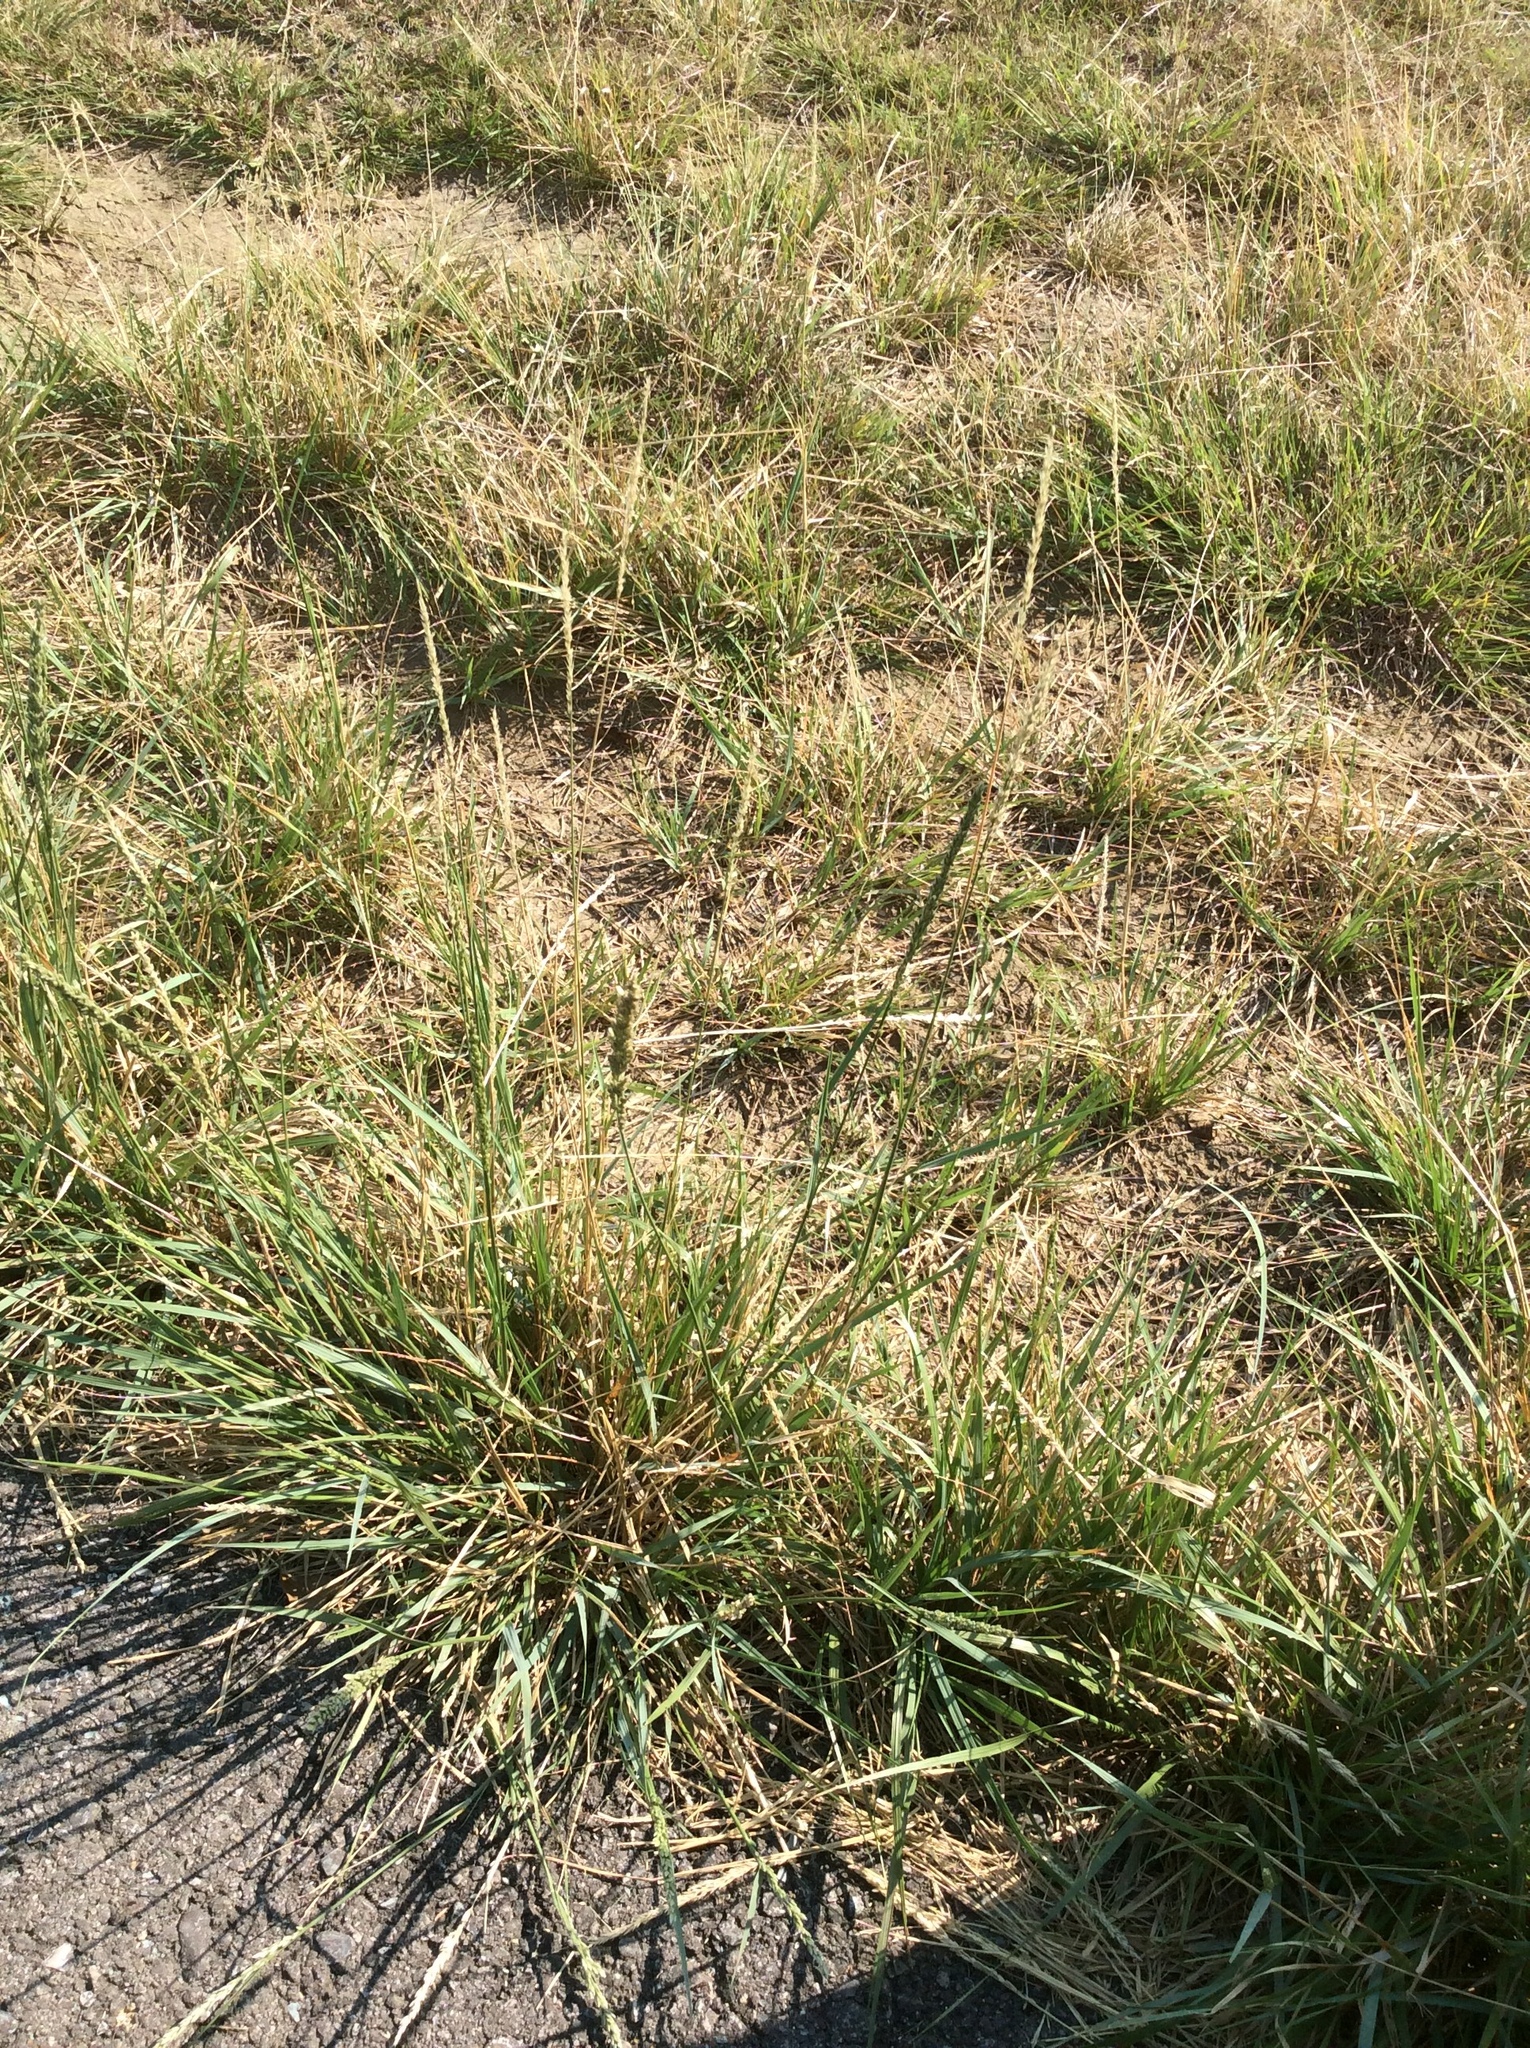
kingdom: Plantae
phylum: Tracheophyta
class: Liliopsida
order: Poales
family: Poaceae
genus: Tridens
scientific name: Tridens albescens
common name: White tridens
